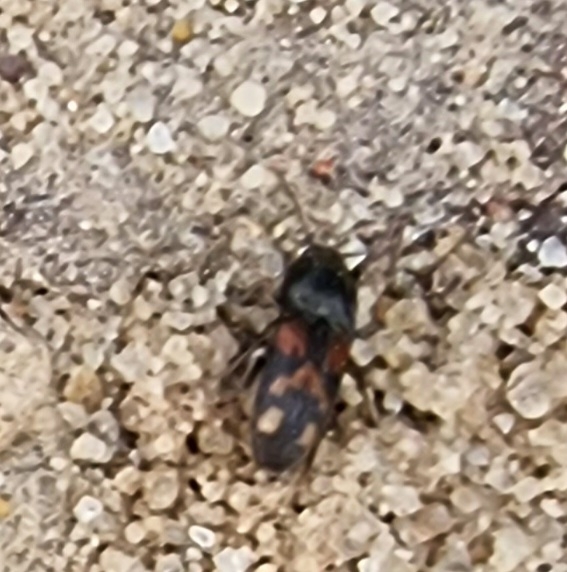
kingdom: Animalia
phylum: Arthropoda
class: Insecta
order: Coleoptera
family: Elateridae
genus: Drasterius
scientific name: Drasterius bimaculatus
